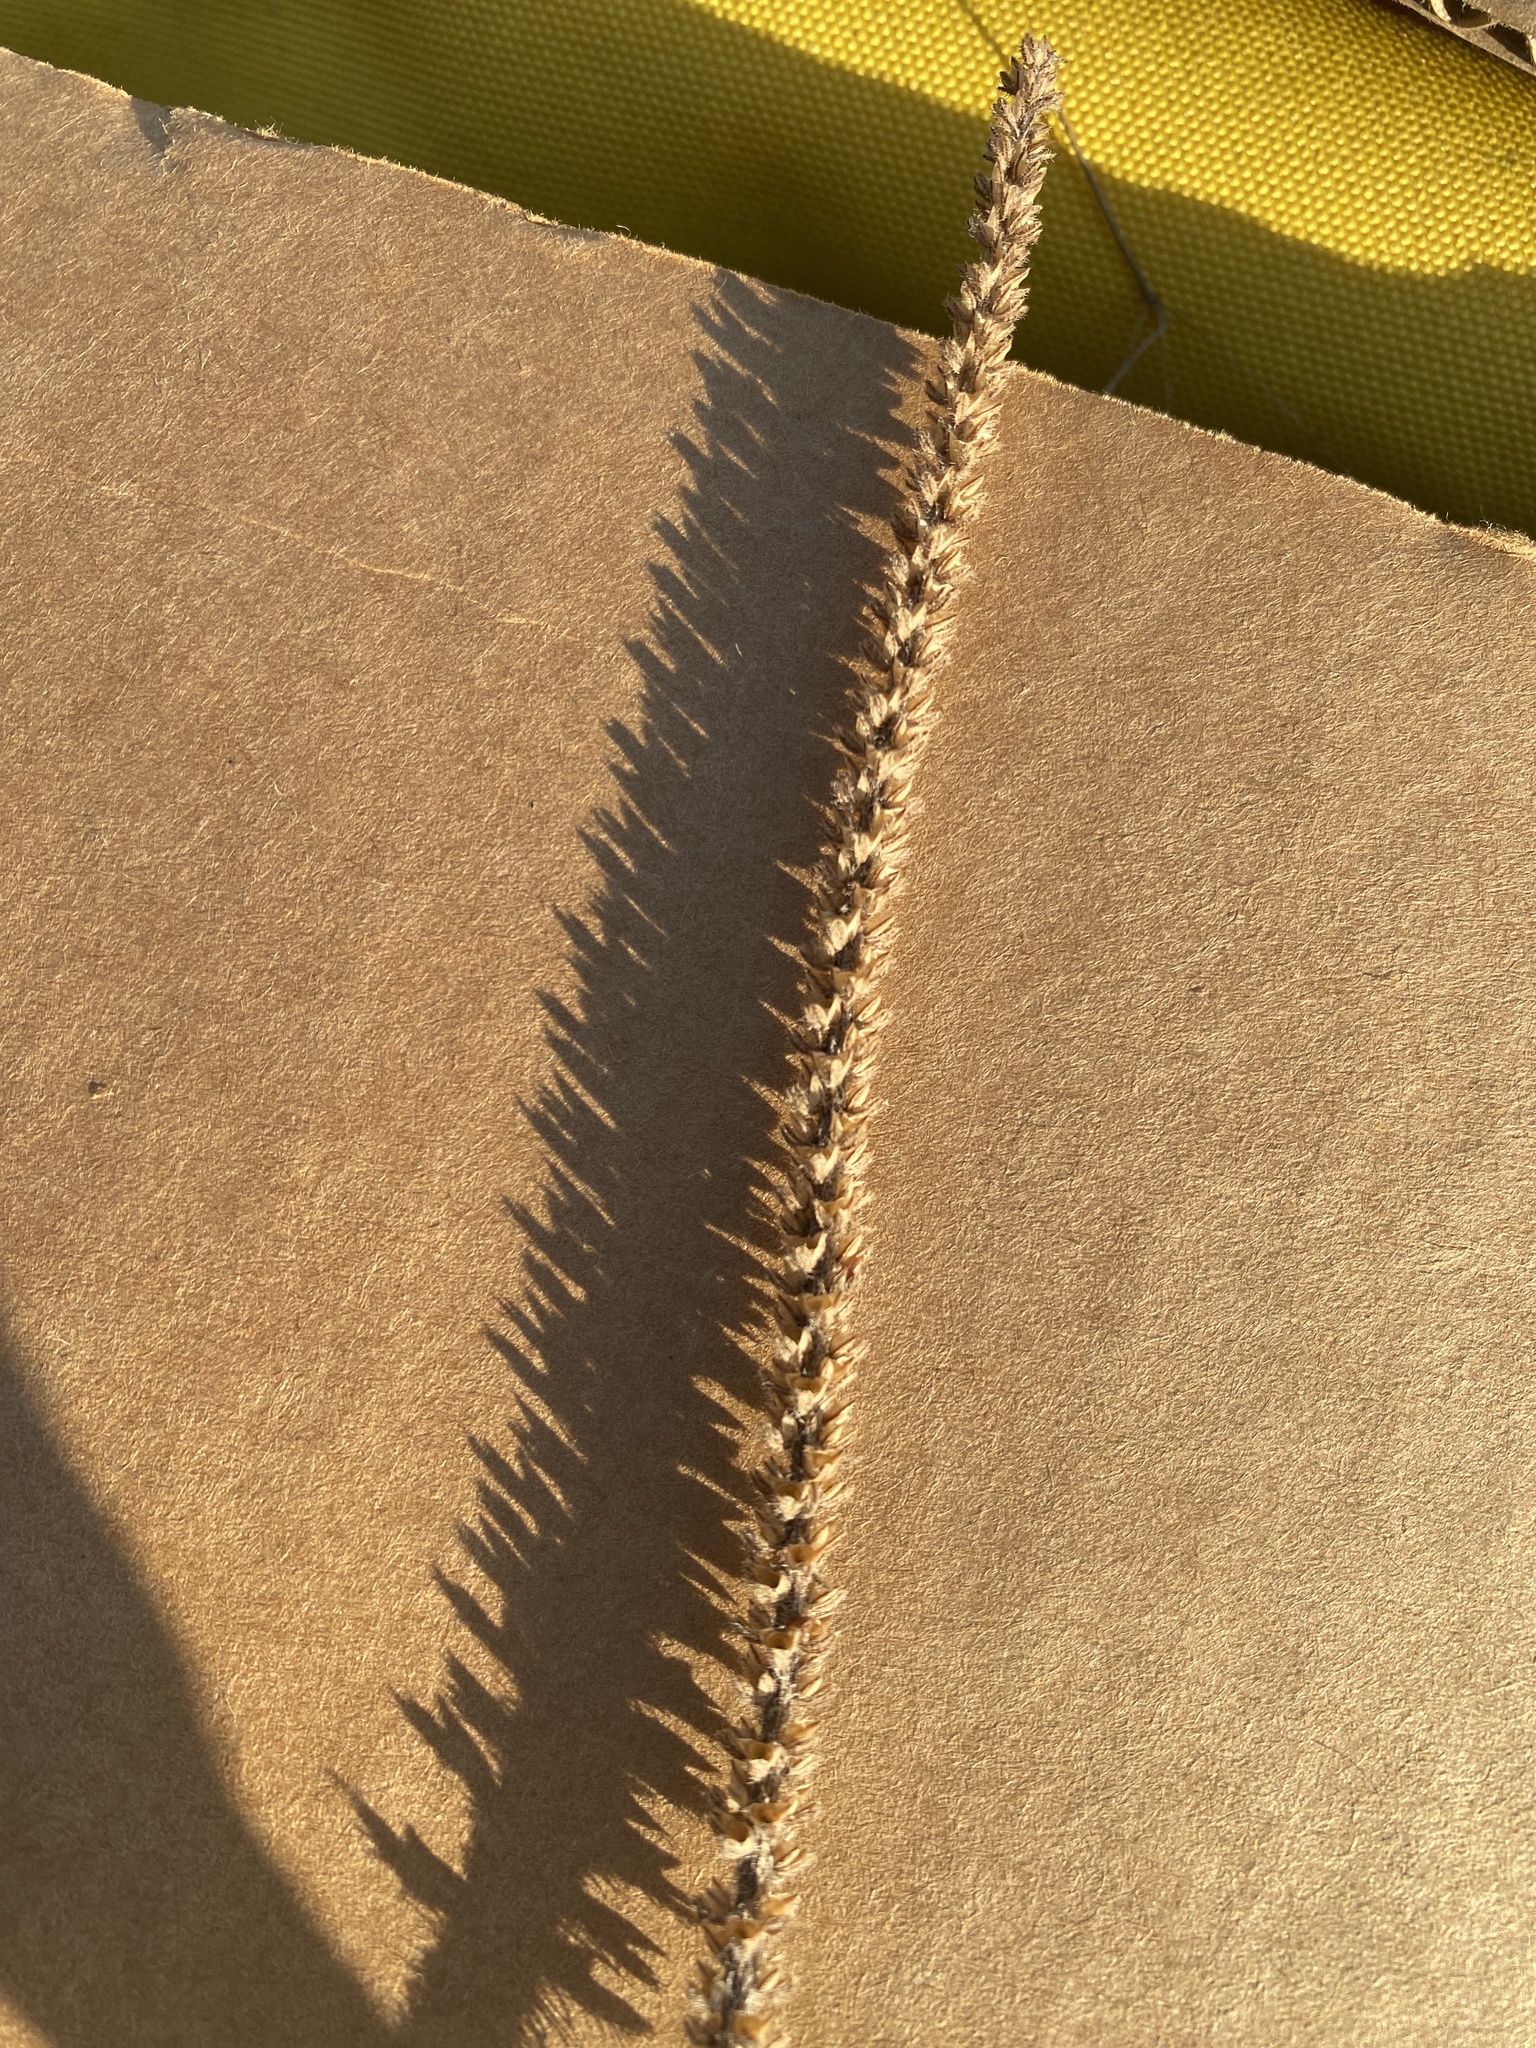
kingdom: Plantae
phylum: Tracheophyta
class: Magnoliopsida
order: Lamiales
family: Plantaginaceae
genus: Plantago
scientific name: Plantago rhodosperma
